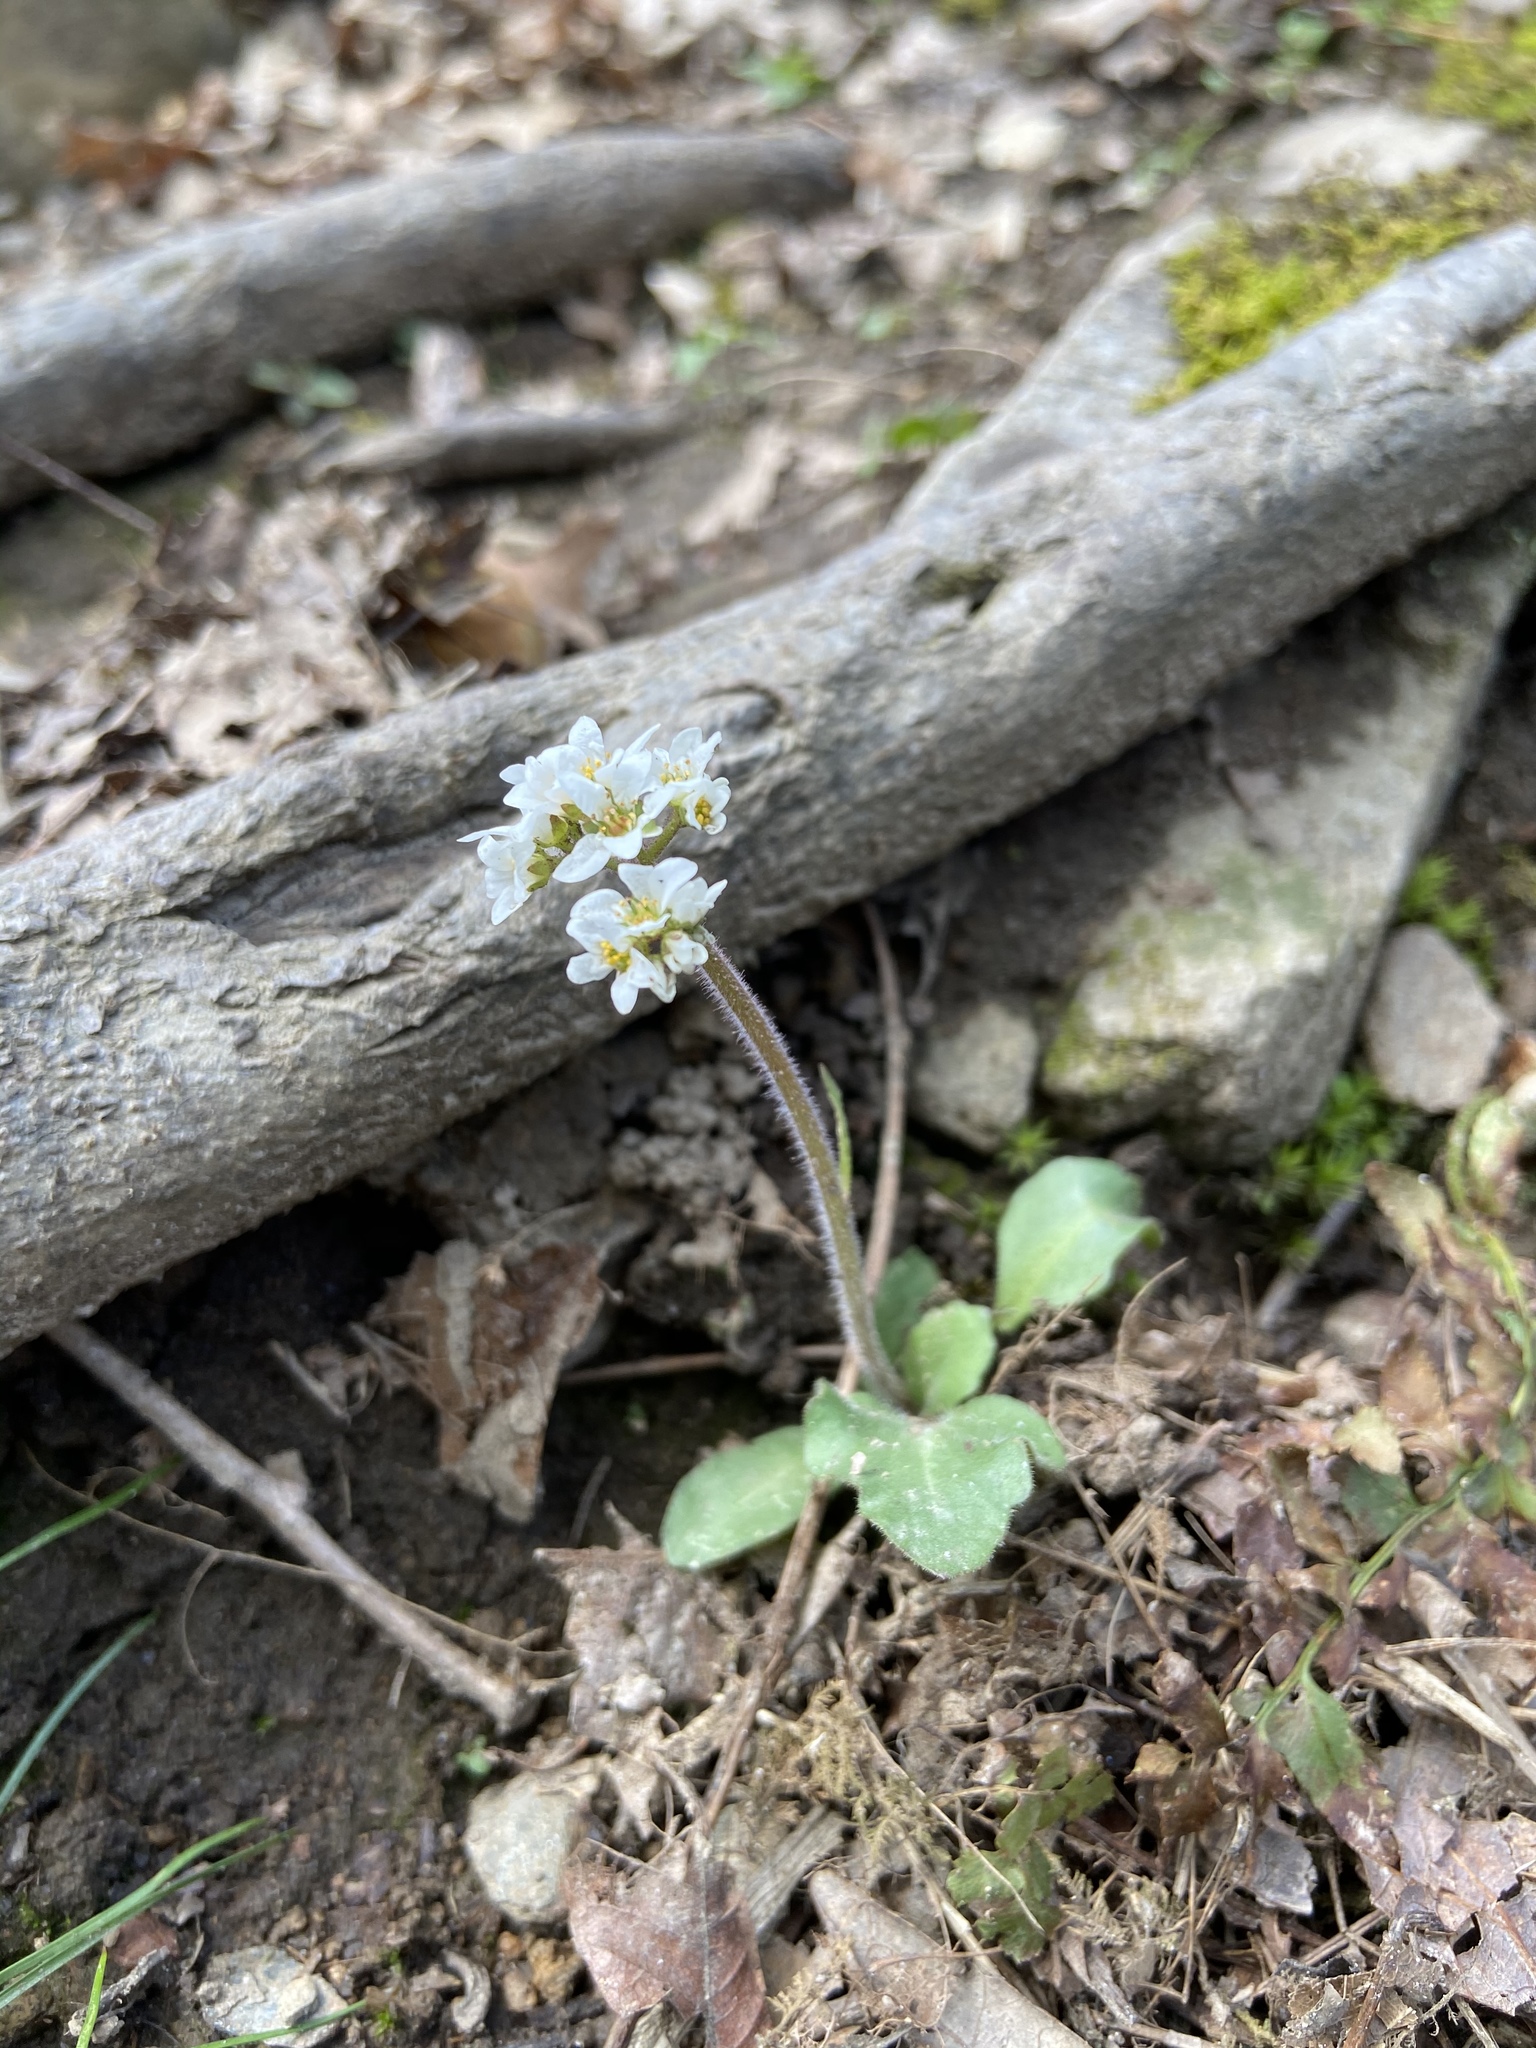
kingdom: Plantae
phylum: Tracheophyta
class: Magnoliopsida
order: Saxifragales
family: Saxifragaceae
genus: Micranthes
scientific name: Micranthes virginiensis
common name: Early saxifrage
